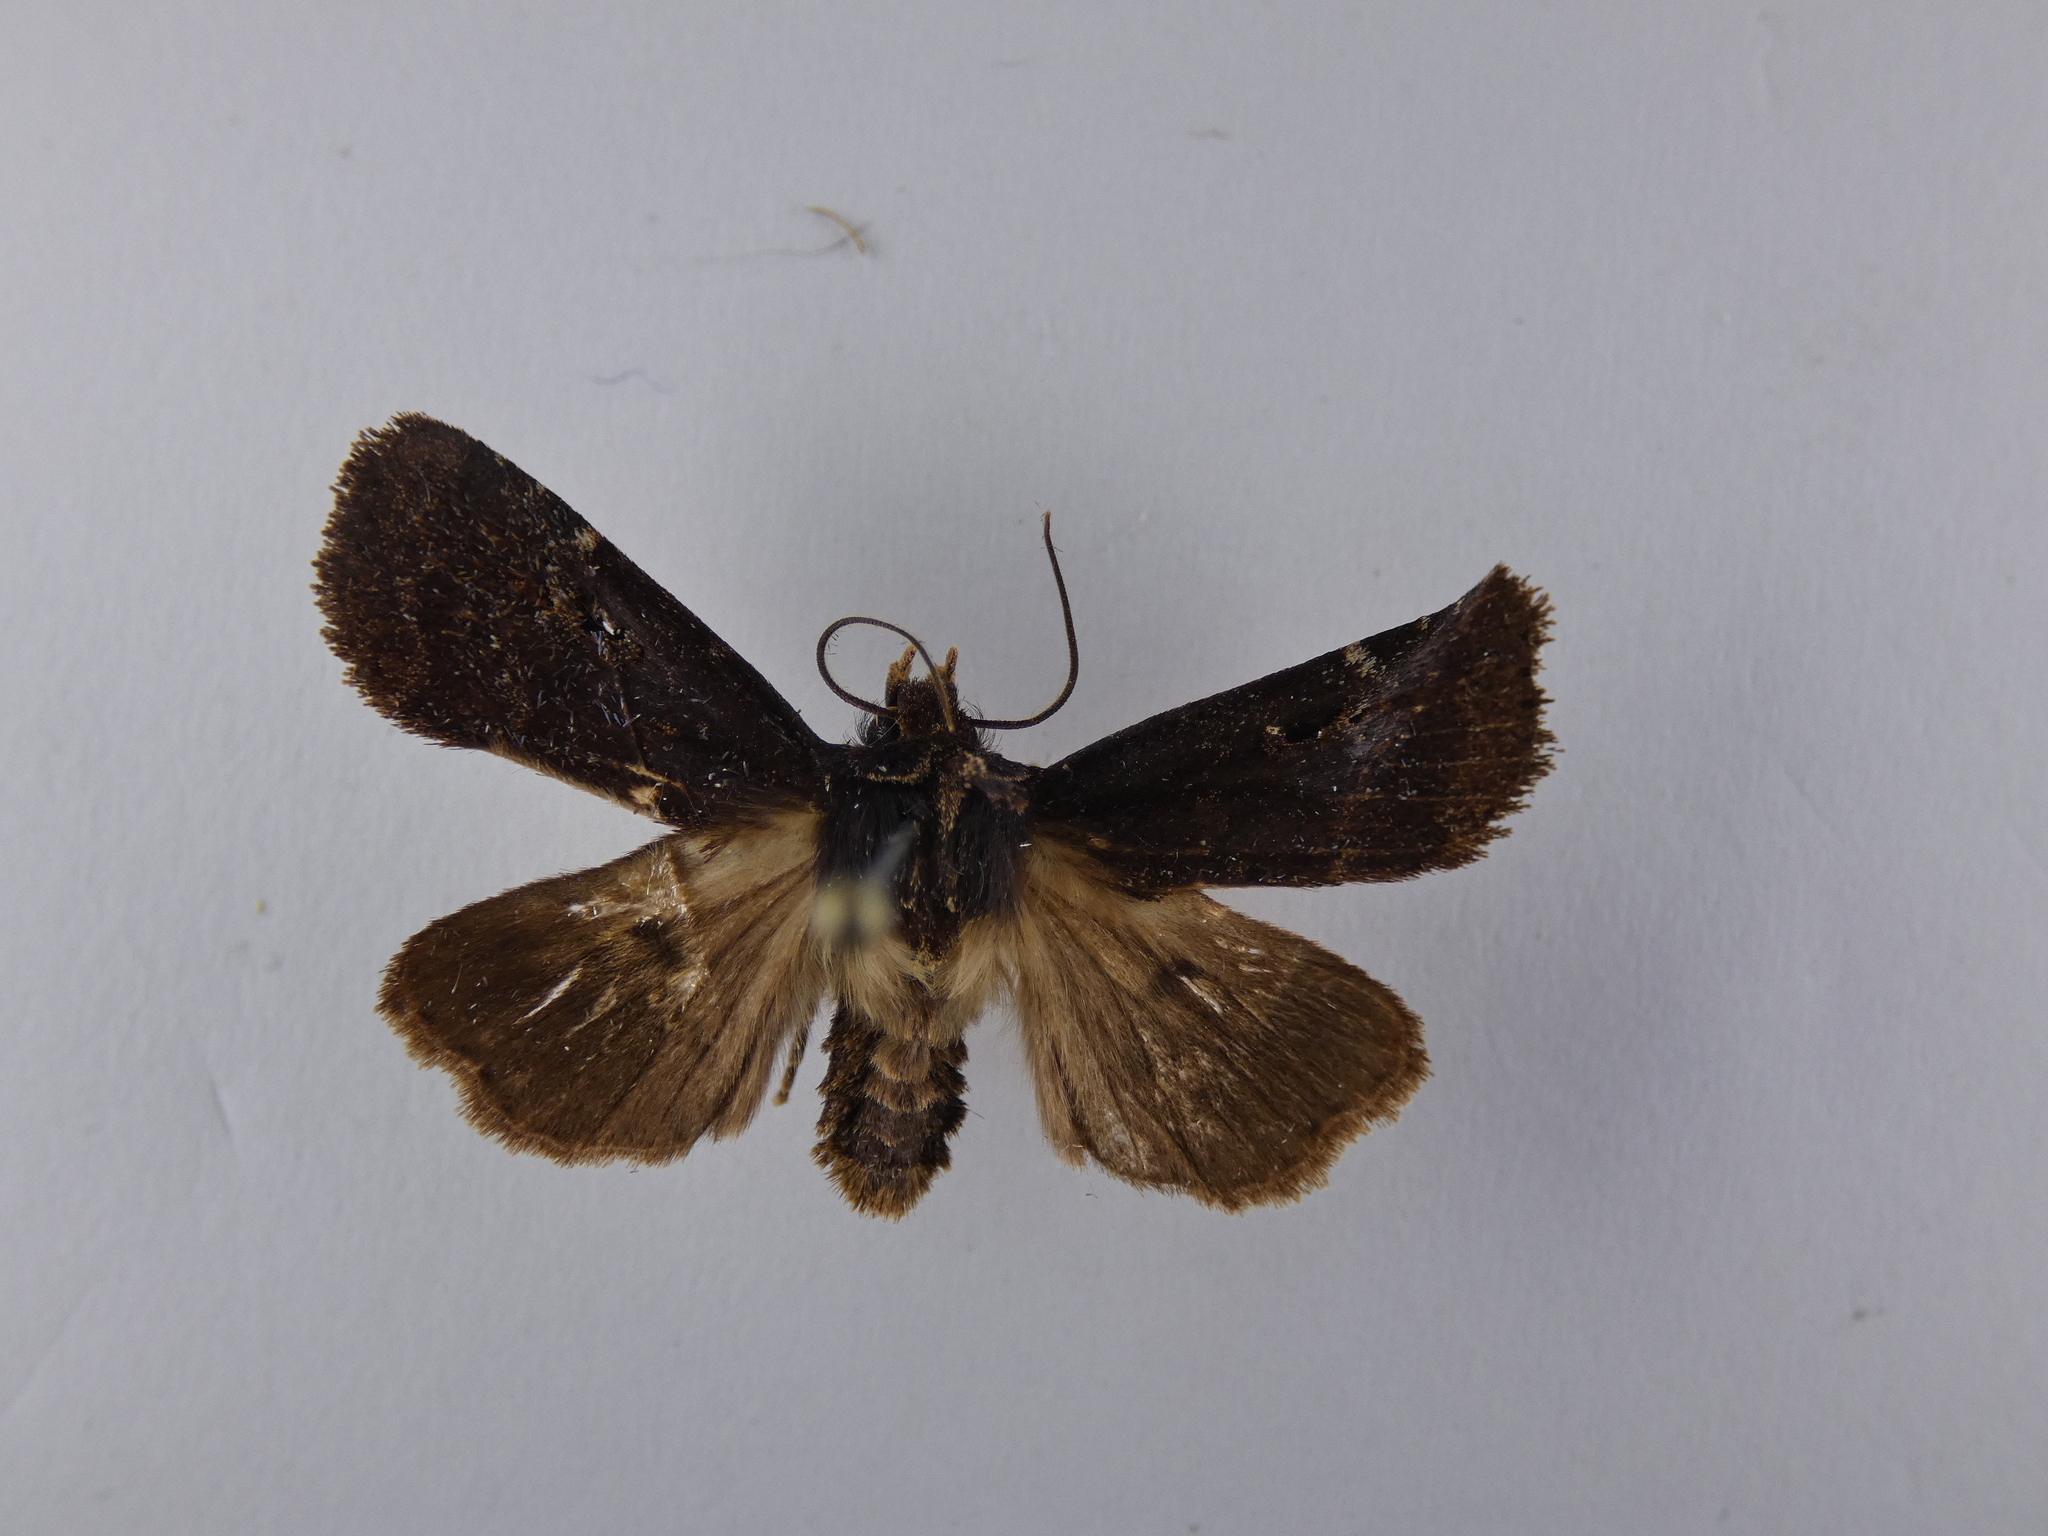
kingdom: Animalia
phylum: Arthropoda
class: Insecta
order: Lepidoptera
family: Noctuidae
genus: Austramathes
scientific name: Austramathes purpurea
